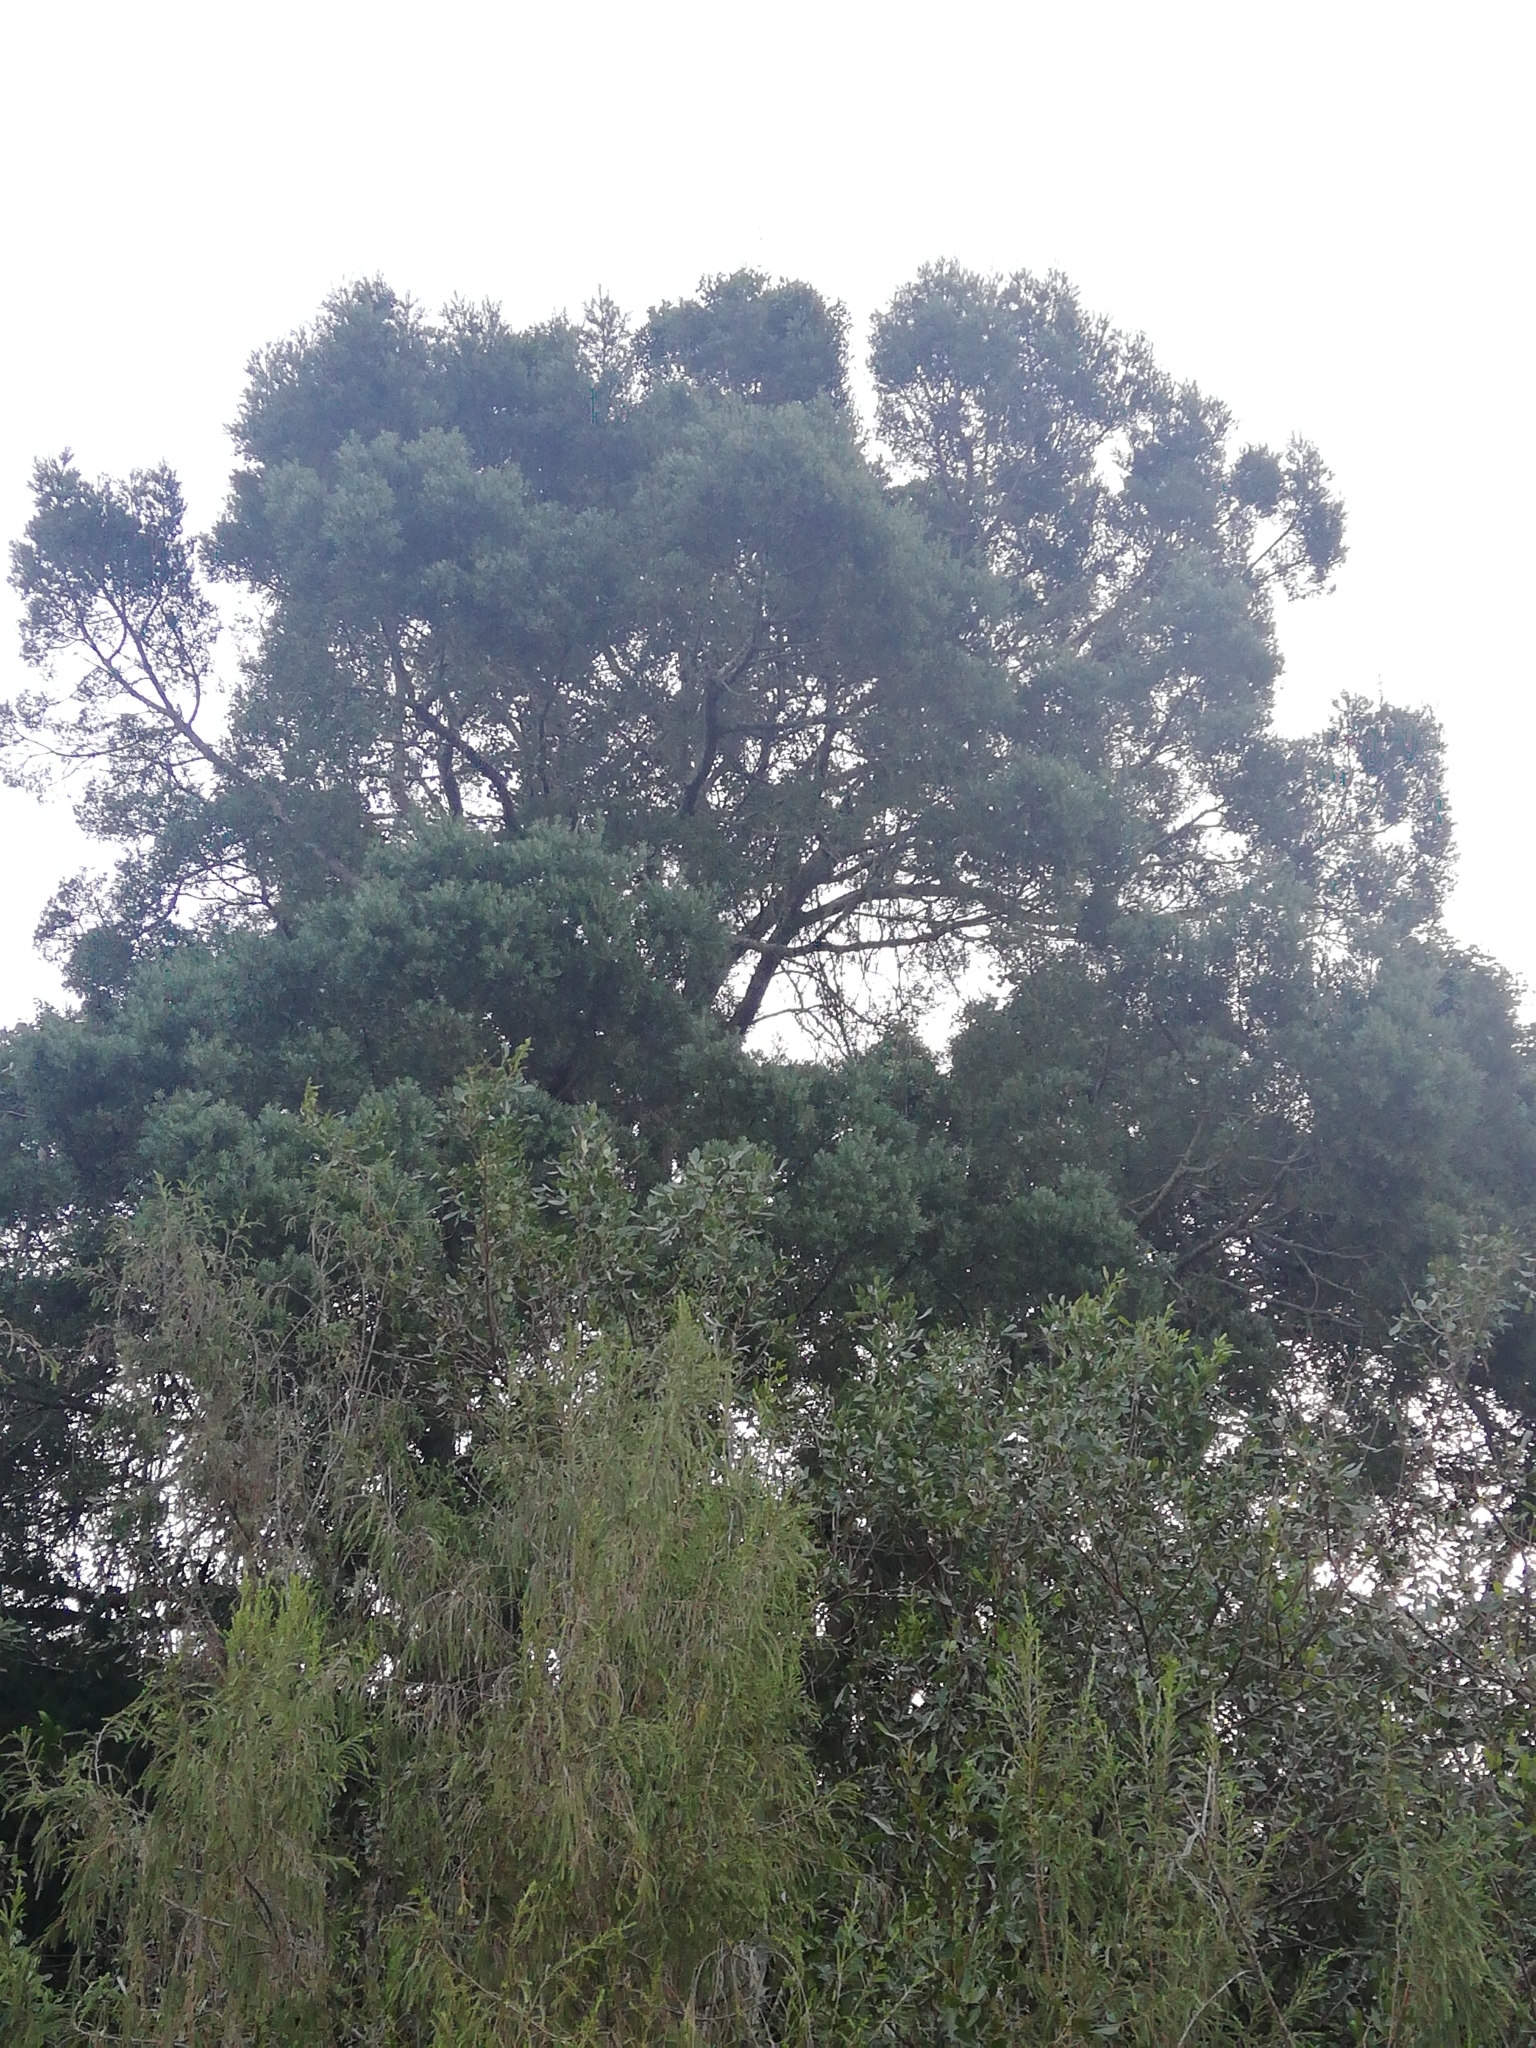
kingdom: Plantae
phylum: Tracheophyta
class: Pinopsida
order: Pinales
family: Podocarpaceae
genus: Afrocarpus
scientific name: Afrocarpus falcatus
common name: Bastard yellowwood
